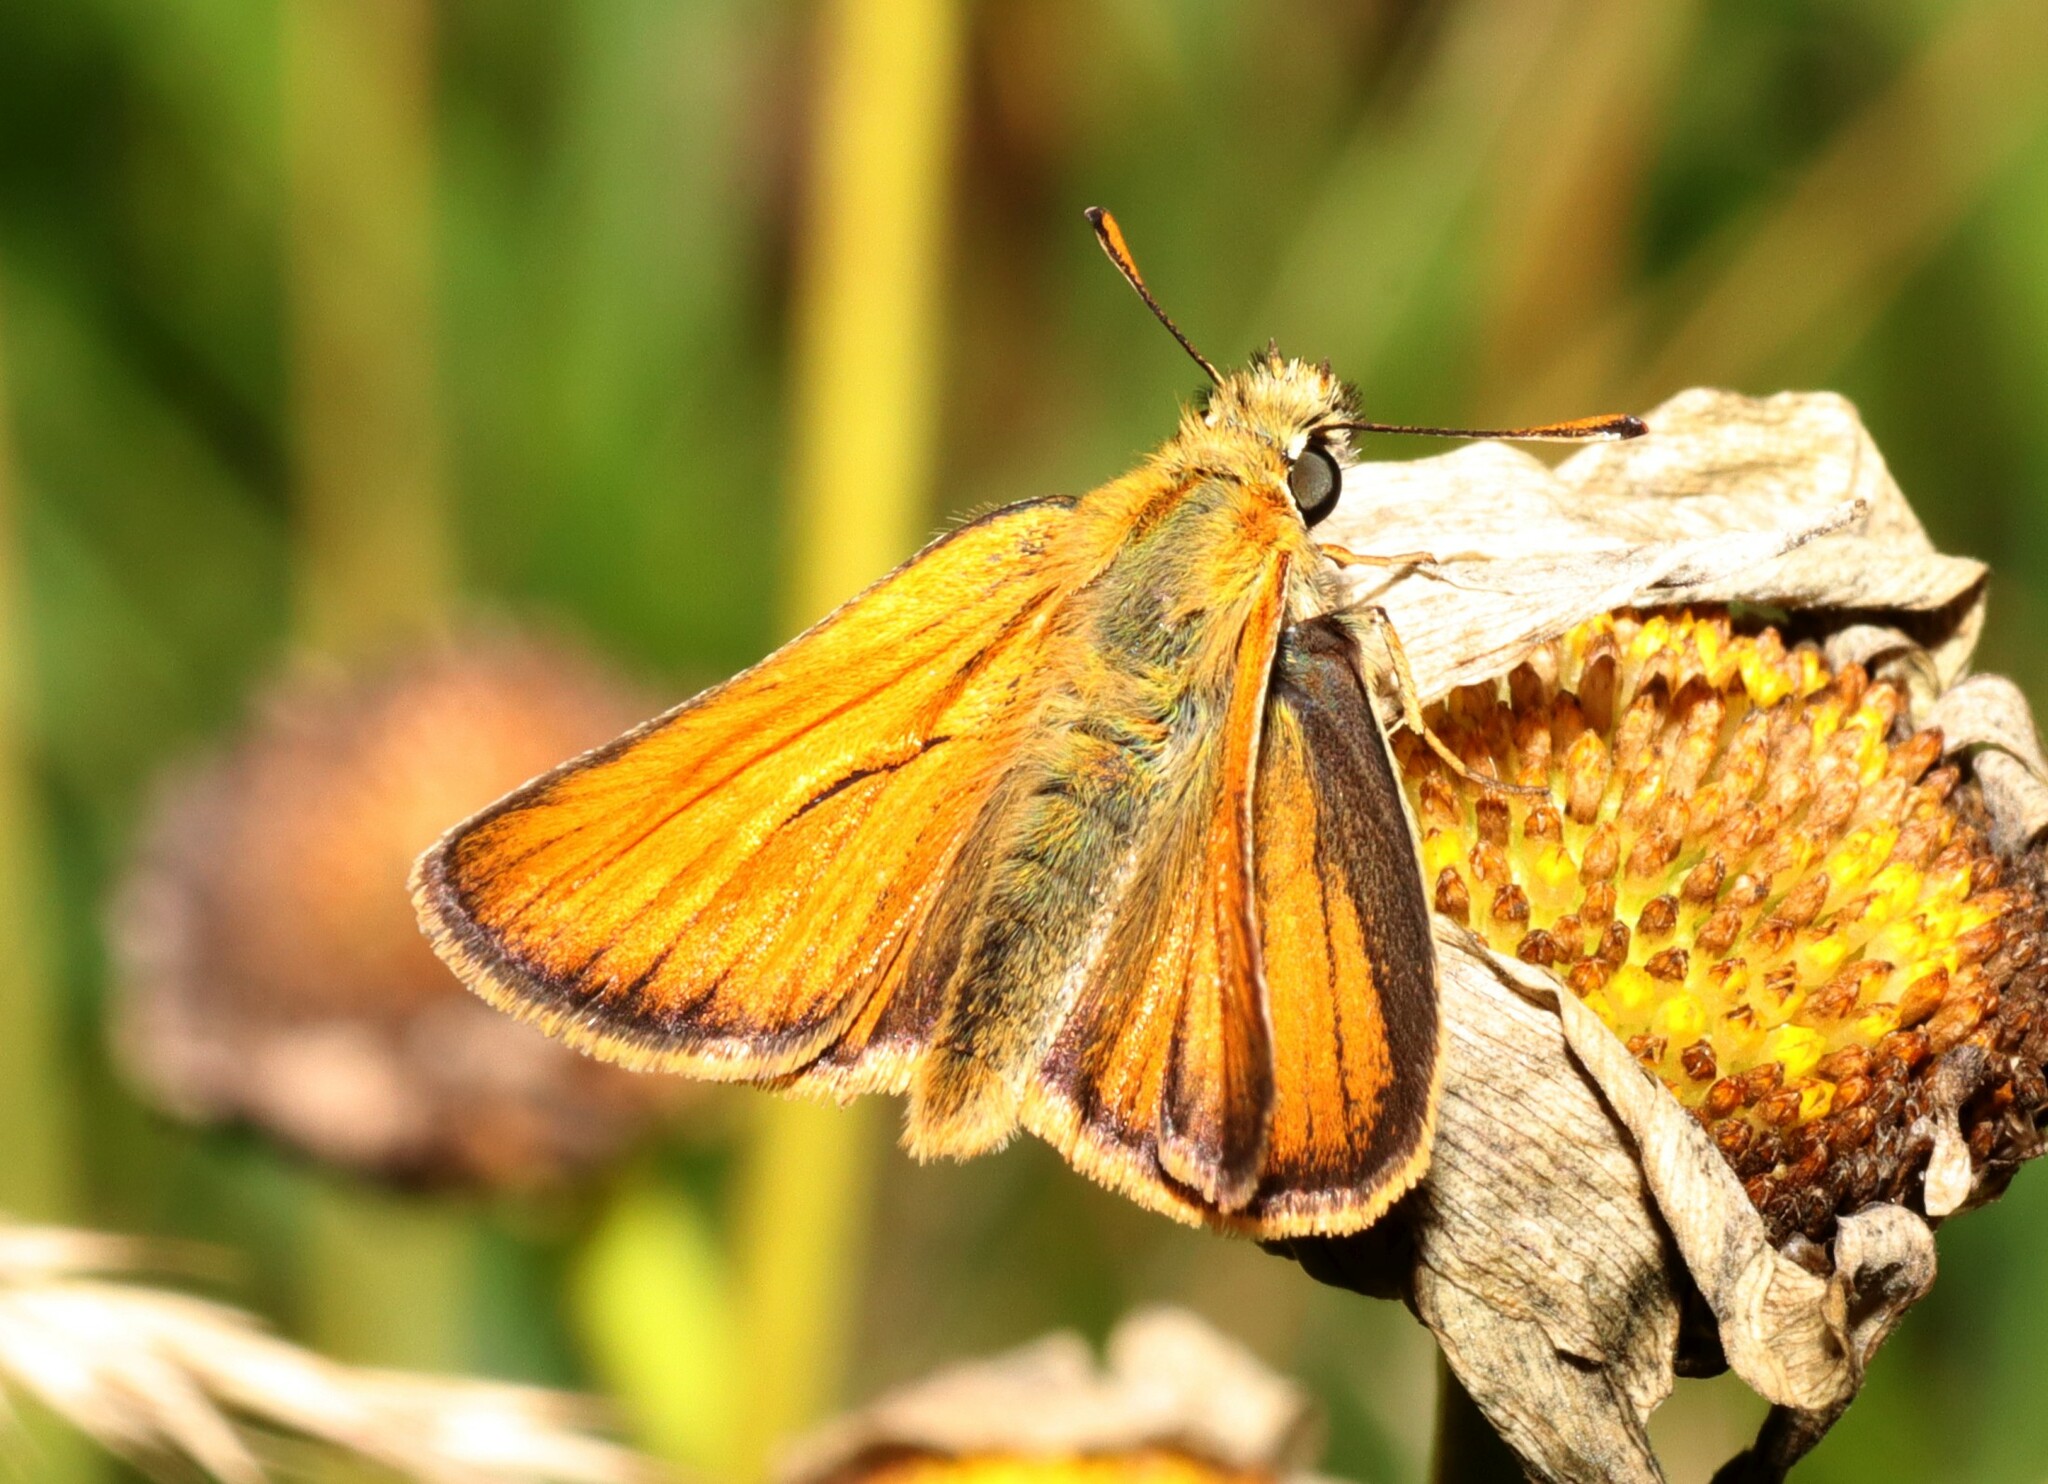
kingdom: Animalia
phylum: Arthropoda
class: Insecta
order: Lepidoptera
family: Hesperiidae
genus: Thymelicus
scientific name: Thymelicus sylvestris
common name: Small skipper
